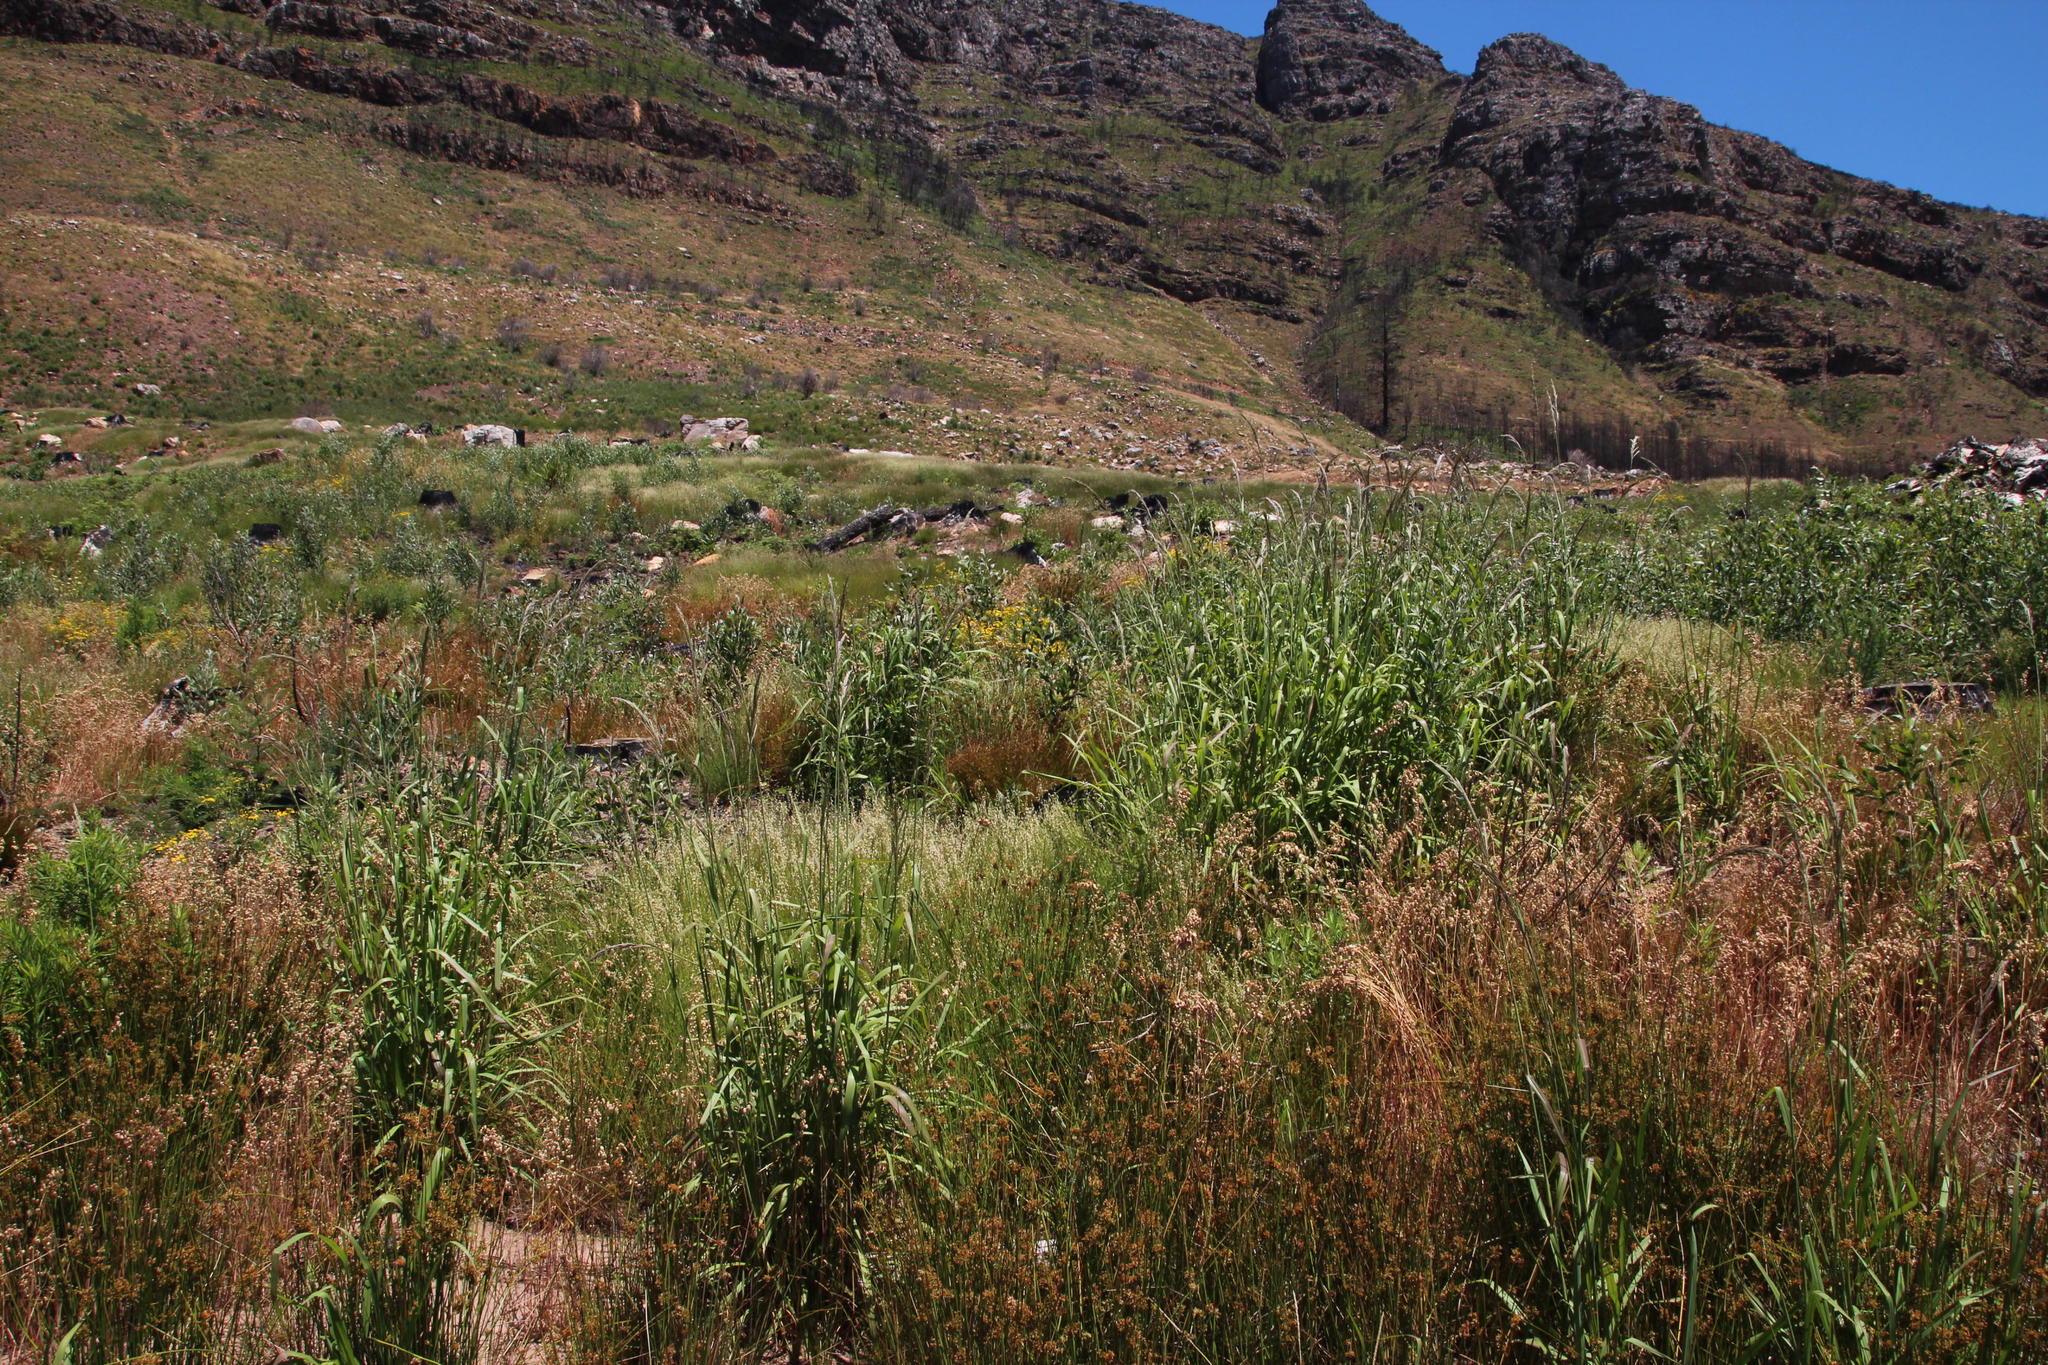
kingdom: Plantae
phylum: Tracheophyta
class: Liliopsida
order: Poales
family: Poaceae
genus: Paspalum
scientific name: Paspalum urvillei
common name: Vasey's grass
